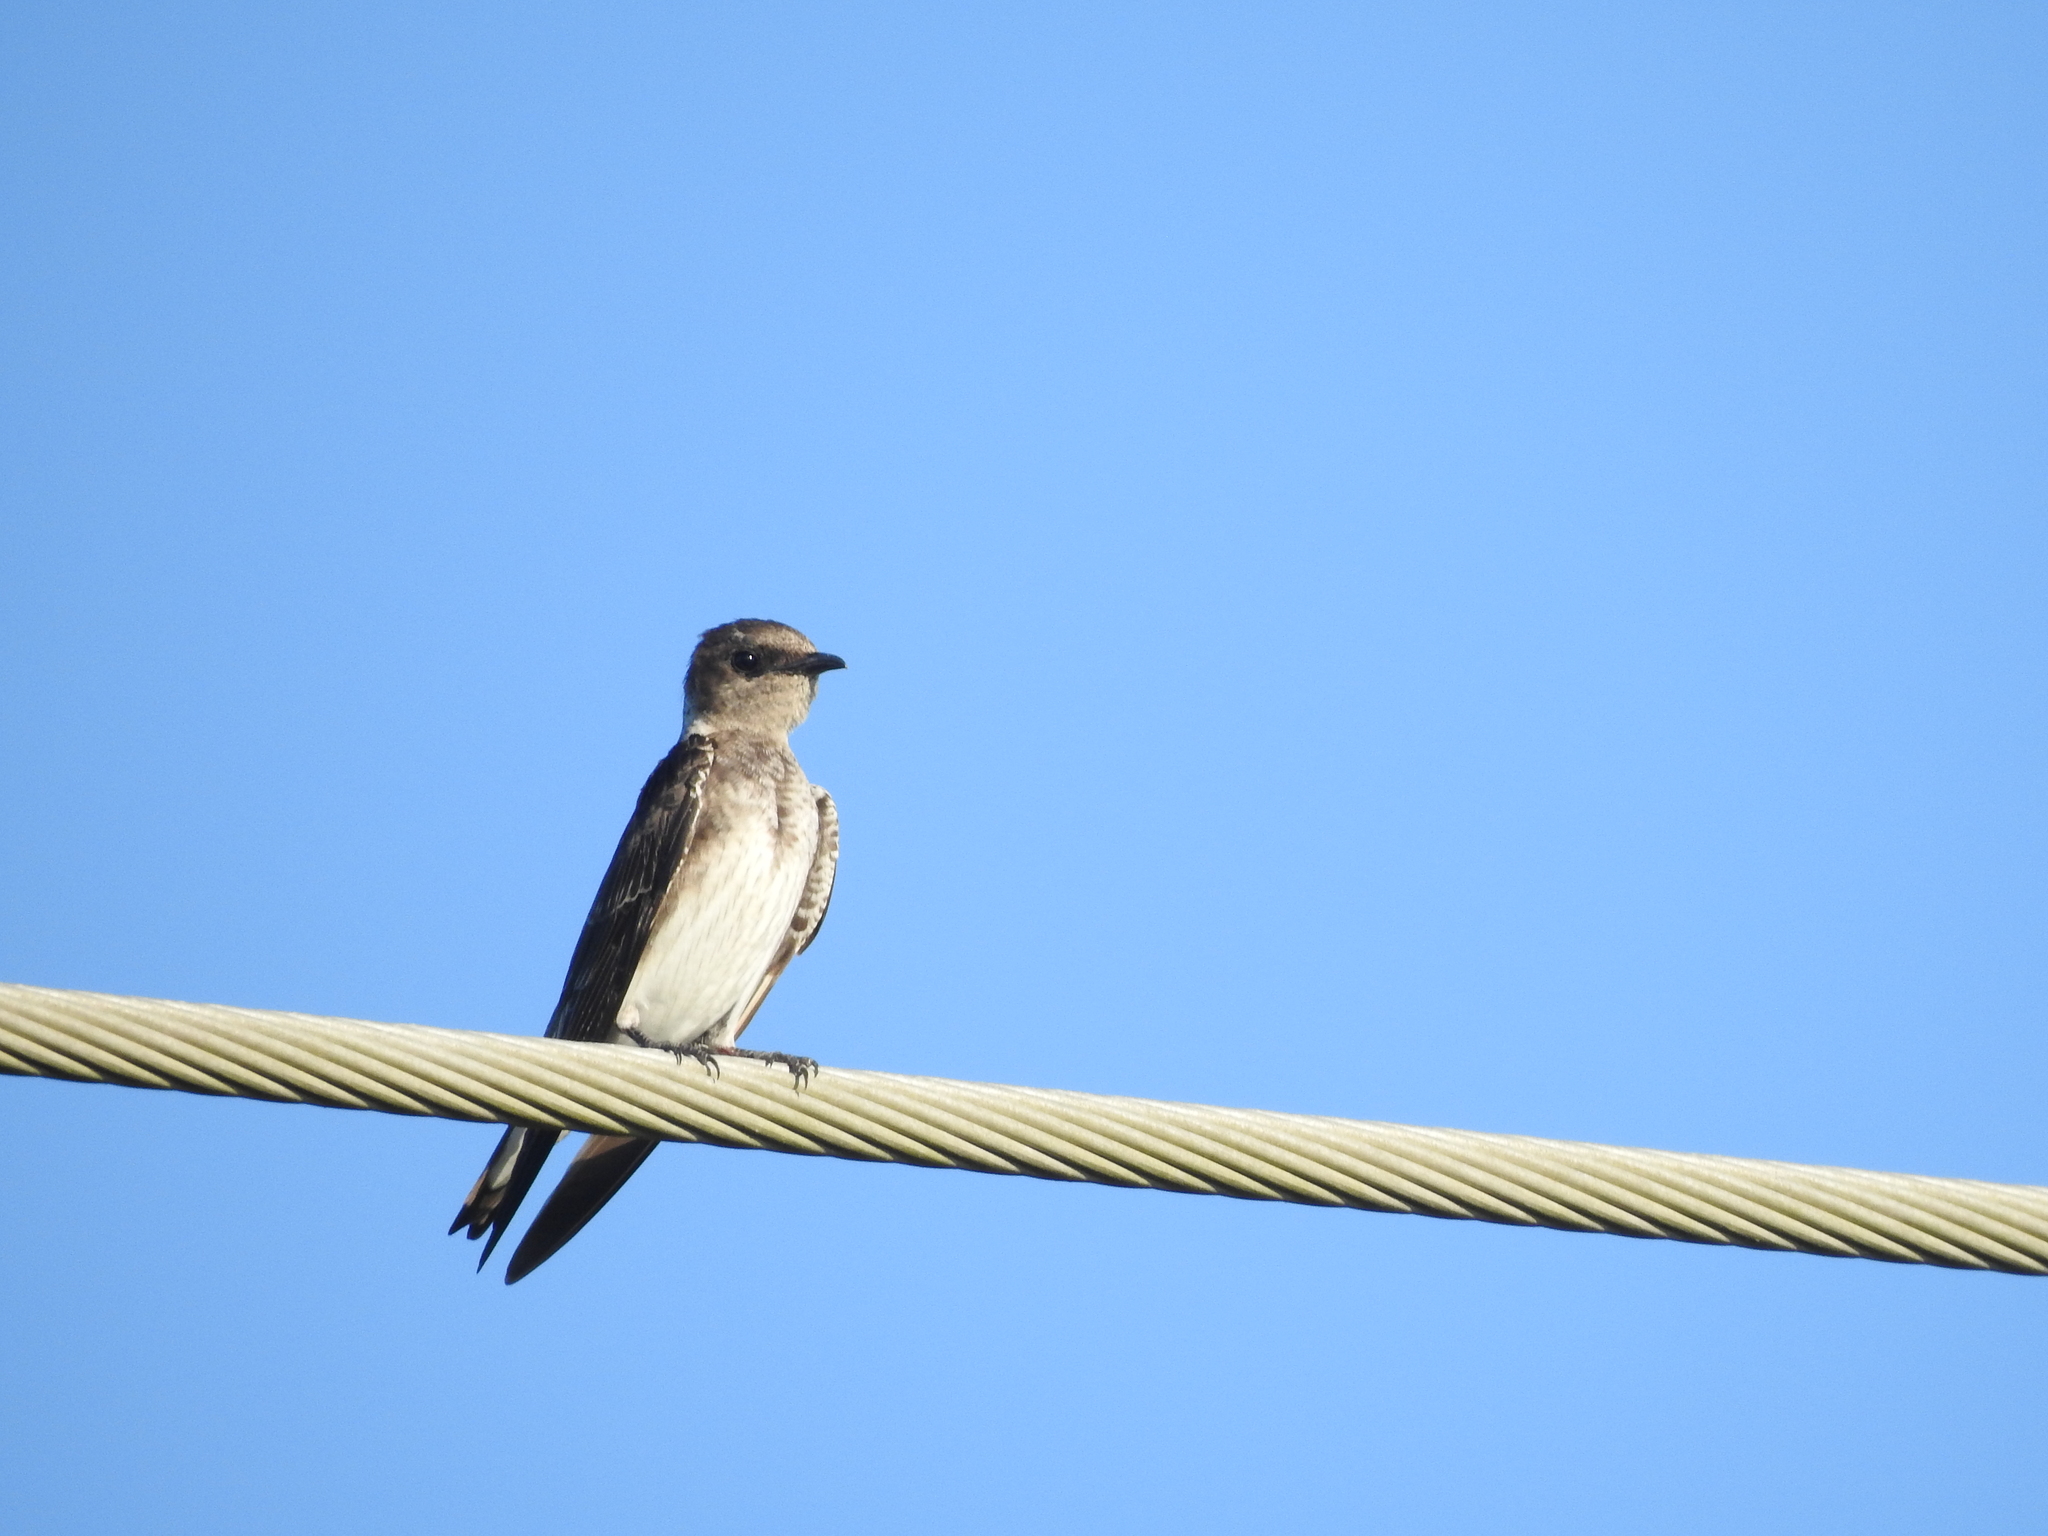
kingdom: Animalia
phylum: Chordata
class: Aves
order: Passeriformes
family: Hirundinidae
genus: Progne
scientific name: Progne subis
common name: Purple martin
